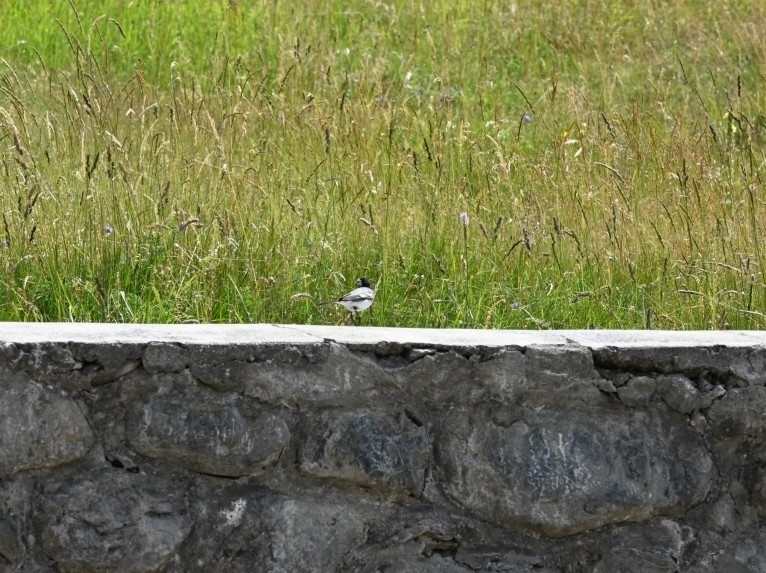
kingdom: Animalia
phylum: Chordata
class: Aves
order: Passeriformes
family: Motacillidae
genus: Motacilla
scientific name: Motacilla alba
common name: White wagtail
